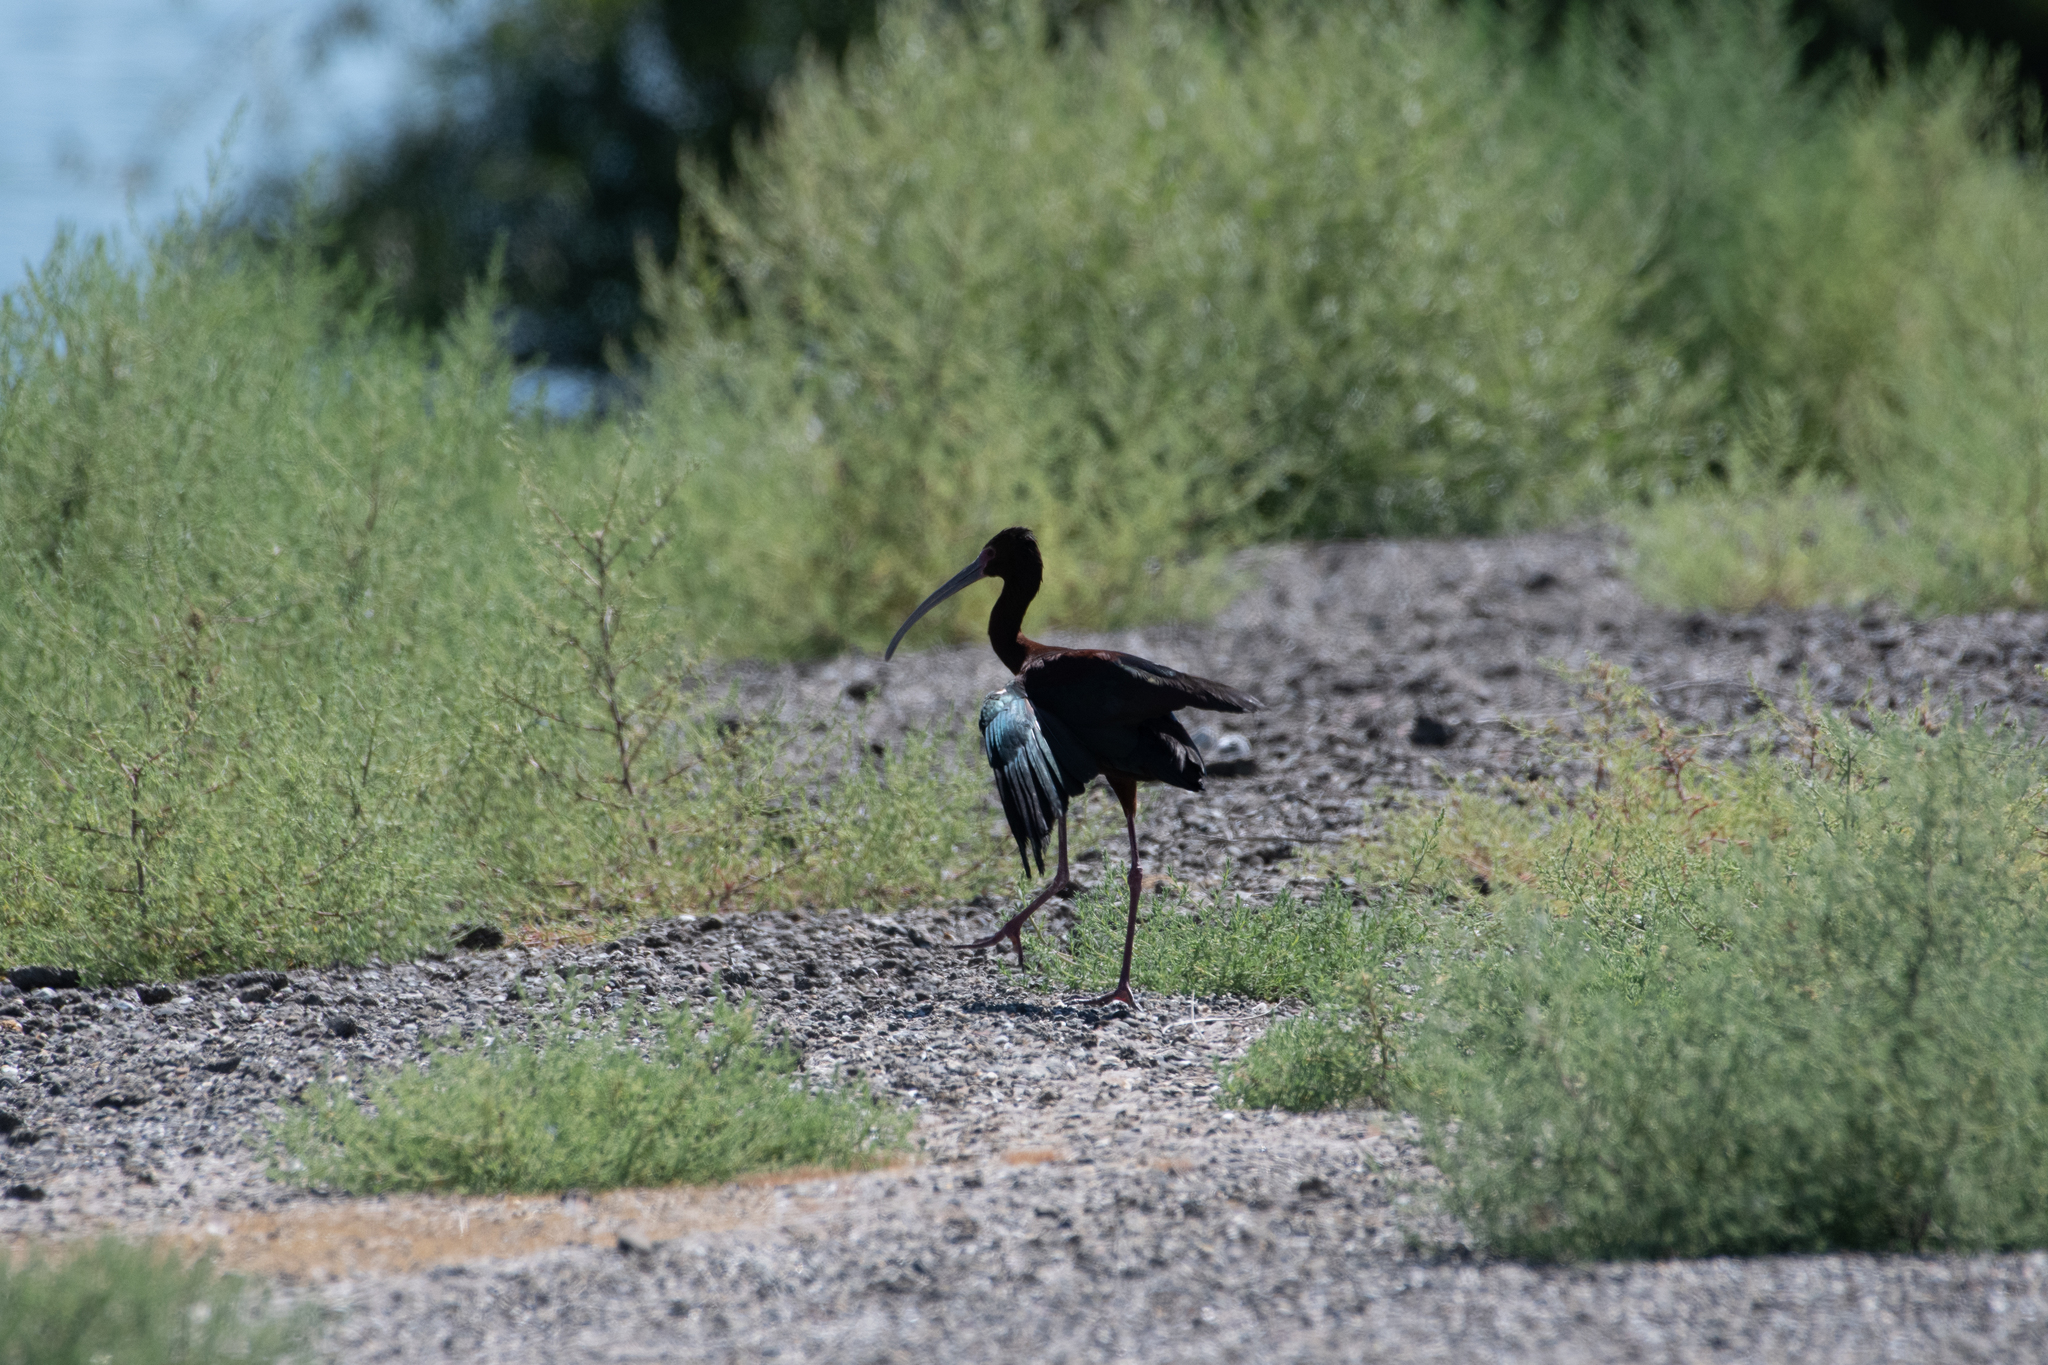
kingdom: Animalia
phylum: Chordata
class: Aves
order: Pelecaniformes
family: Threskiornithidae
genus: Plegadis
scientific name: Plegadis chihi
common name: White-faced ibis
